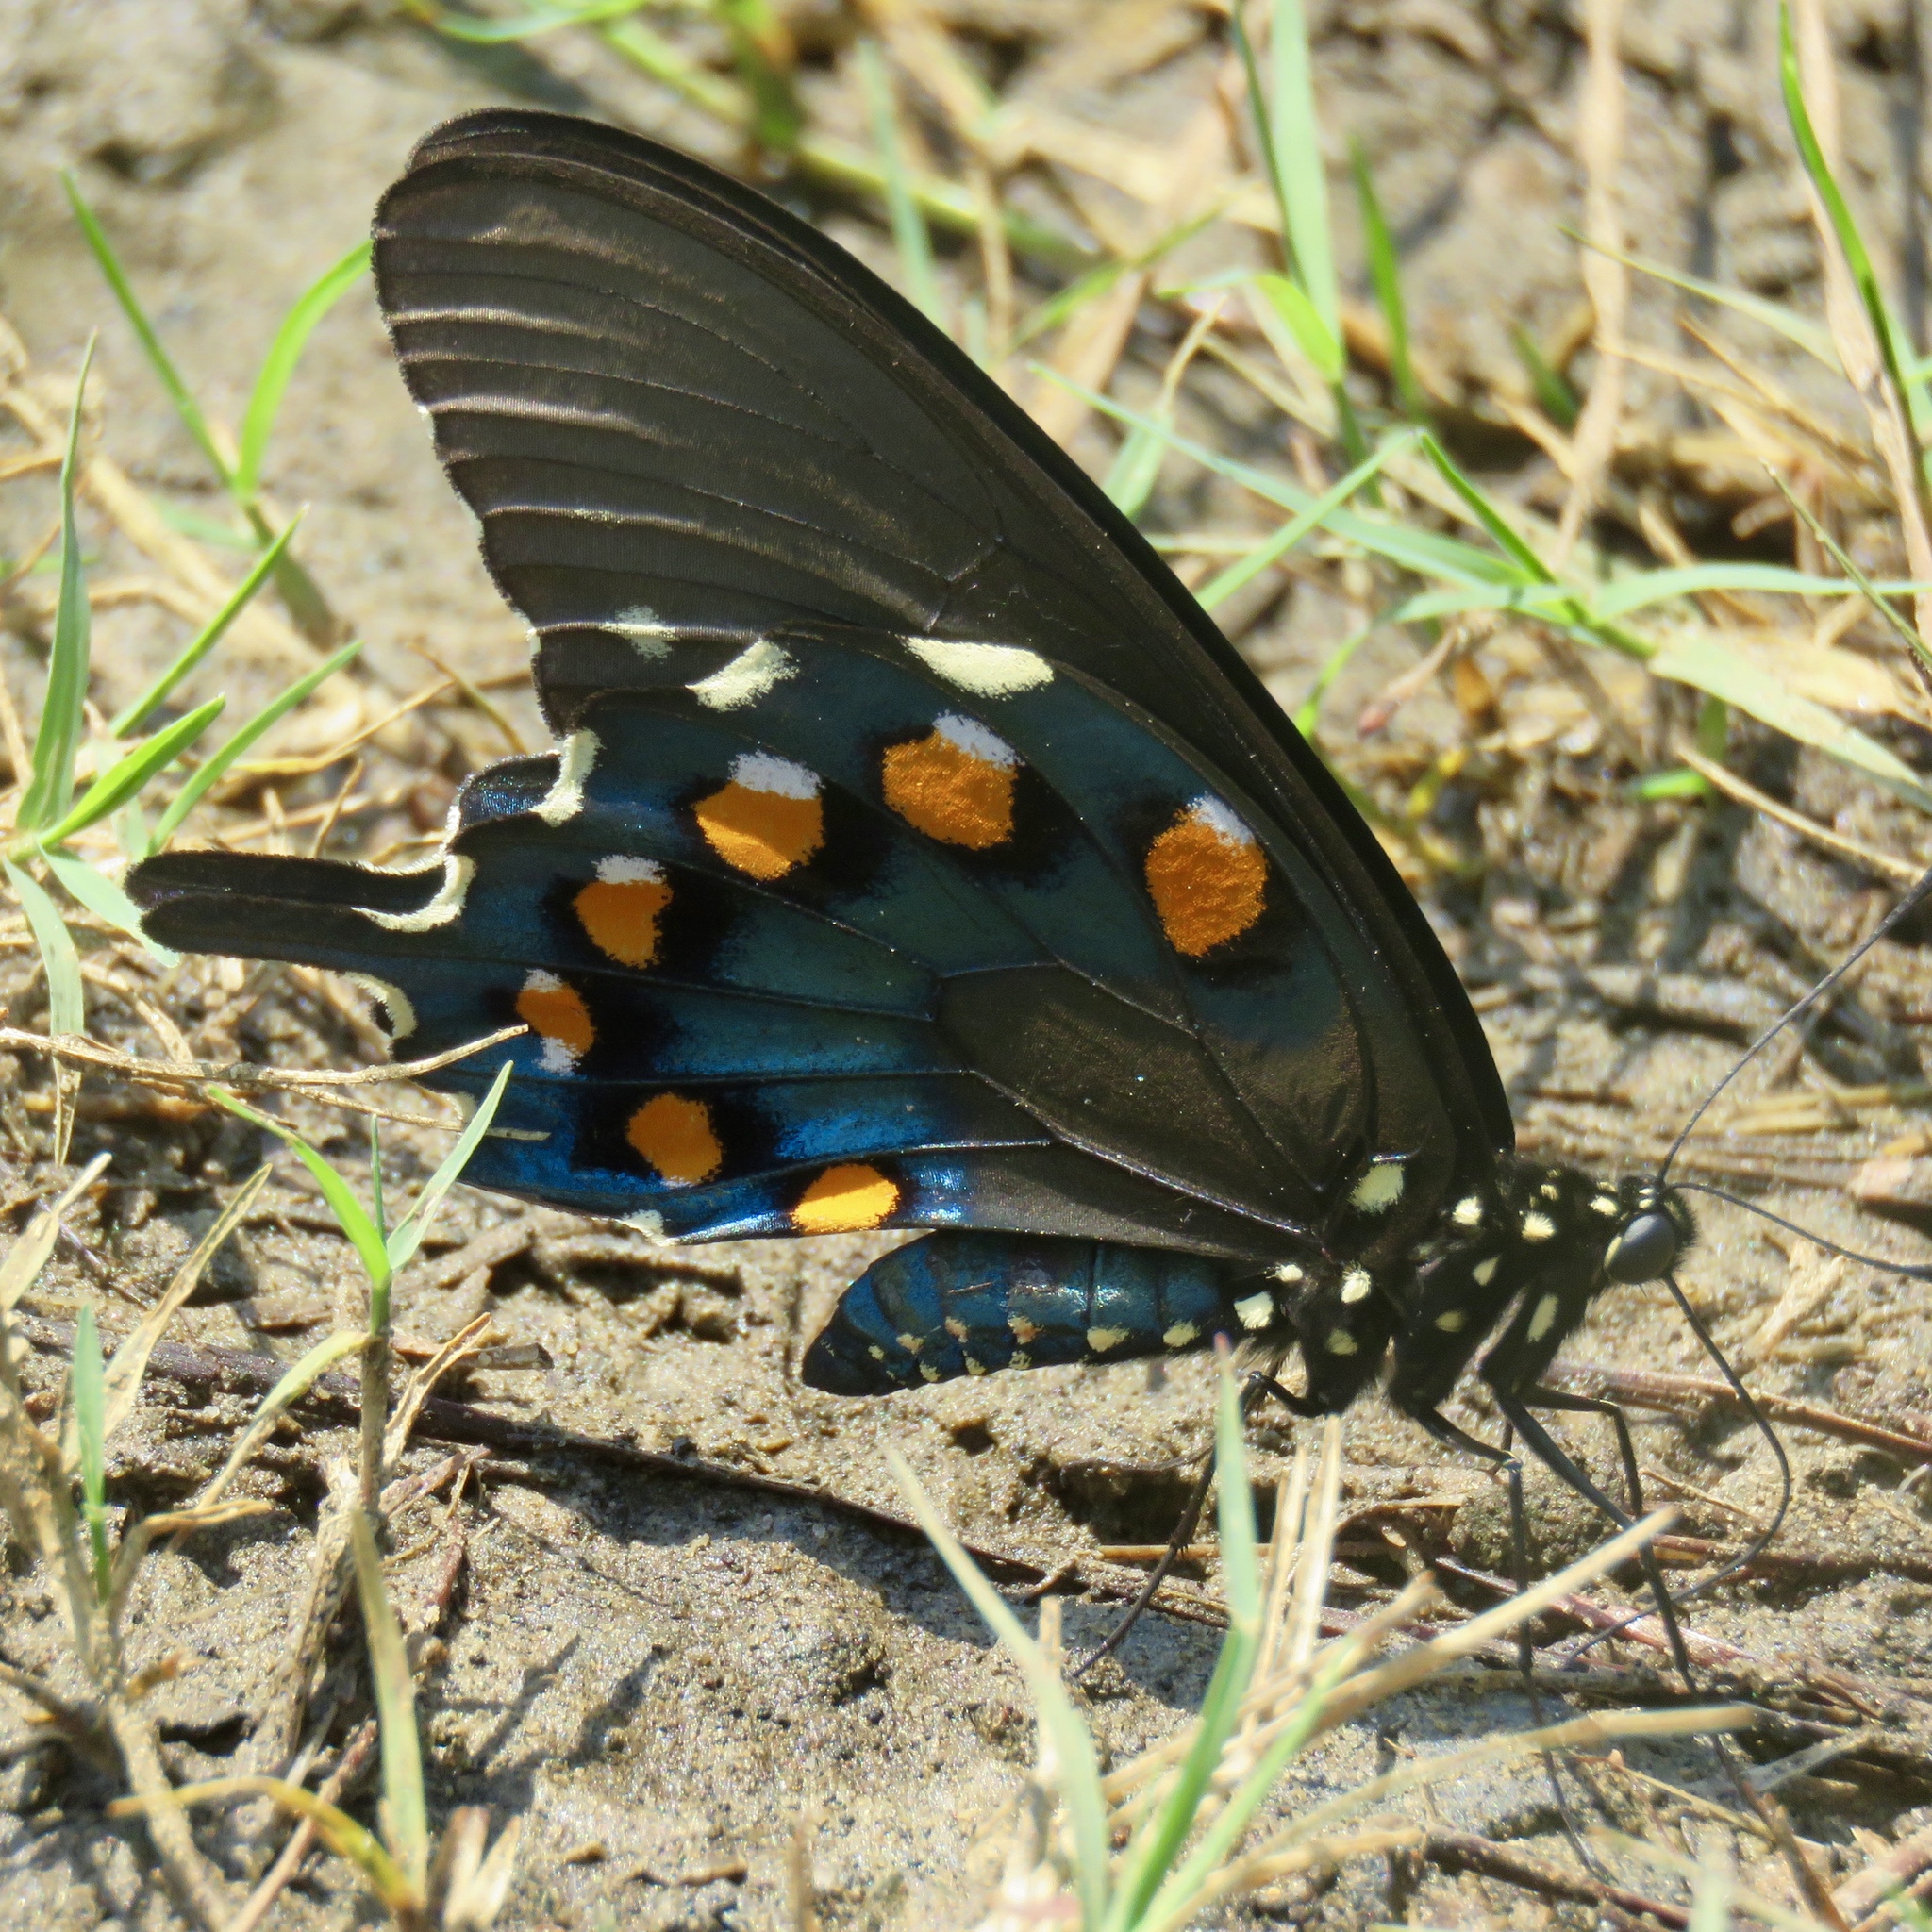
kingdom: Animalia
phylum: Arthropoda
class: Insecta
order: Lepidoptera
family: Papilionidae
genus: Battus
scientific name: Battus philenor
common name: Pipevine swallowtail
